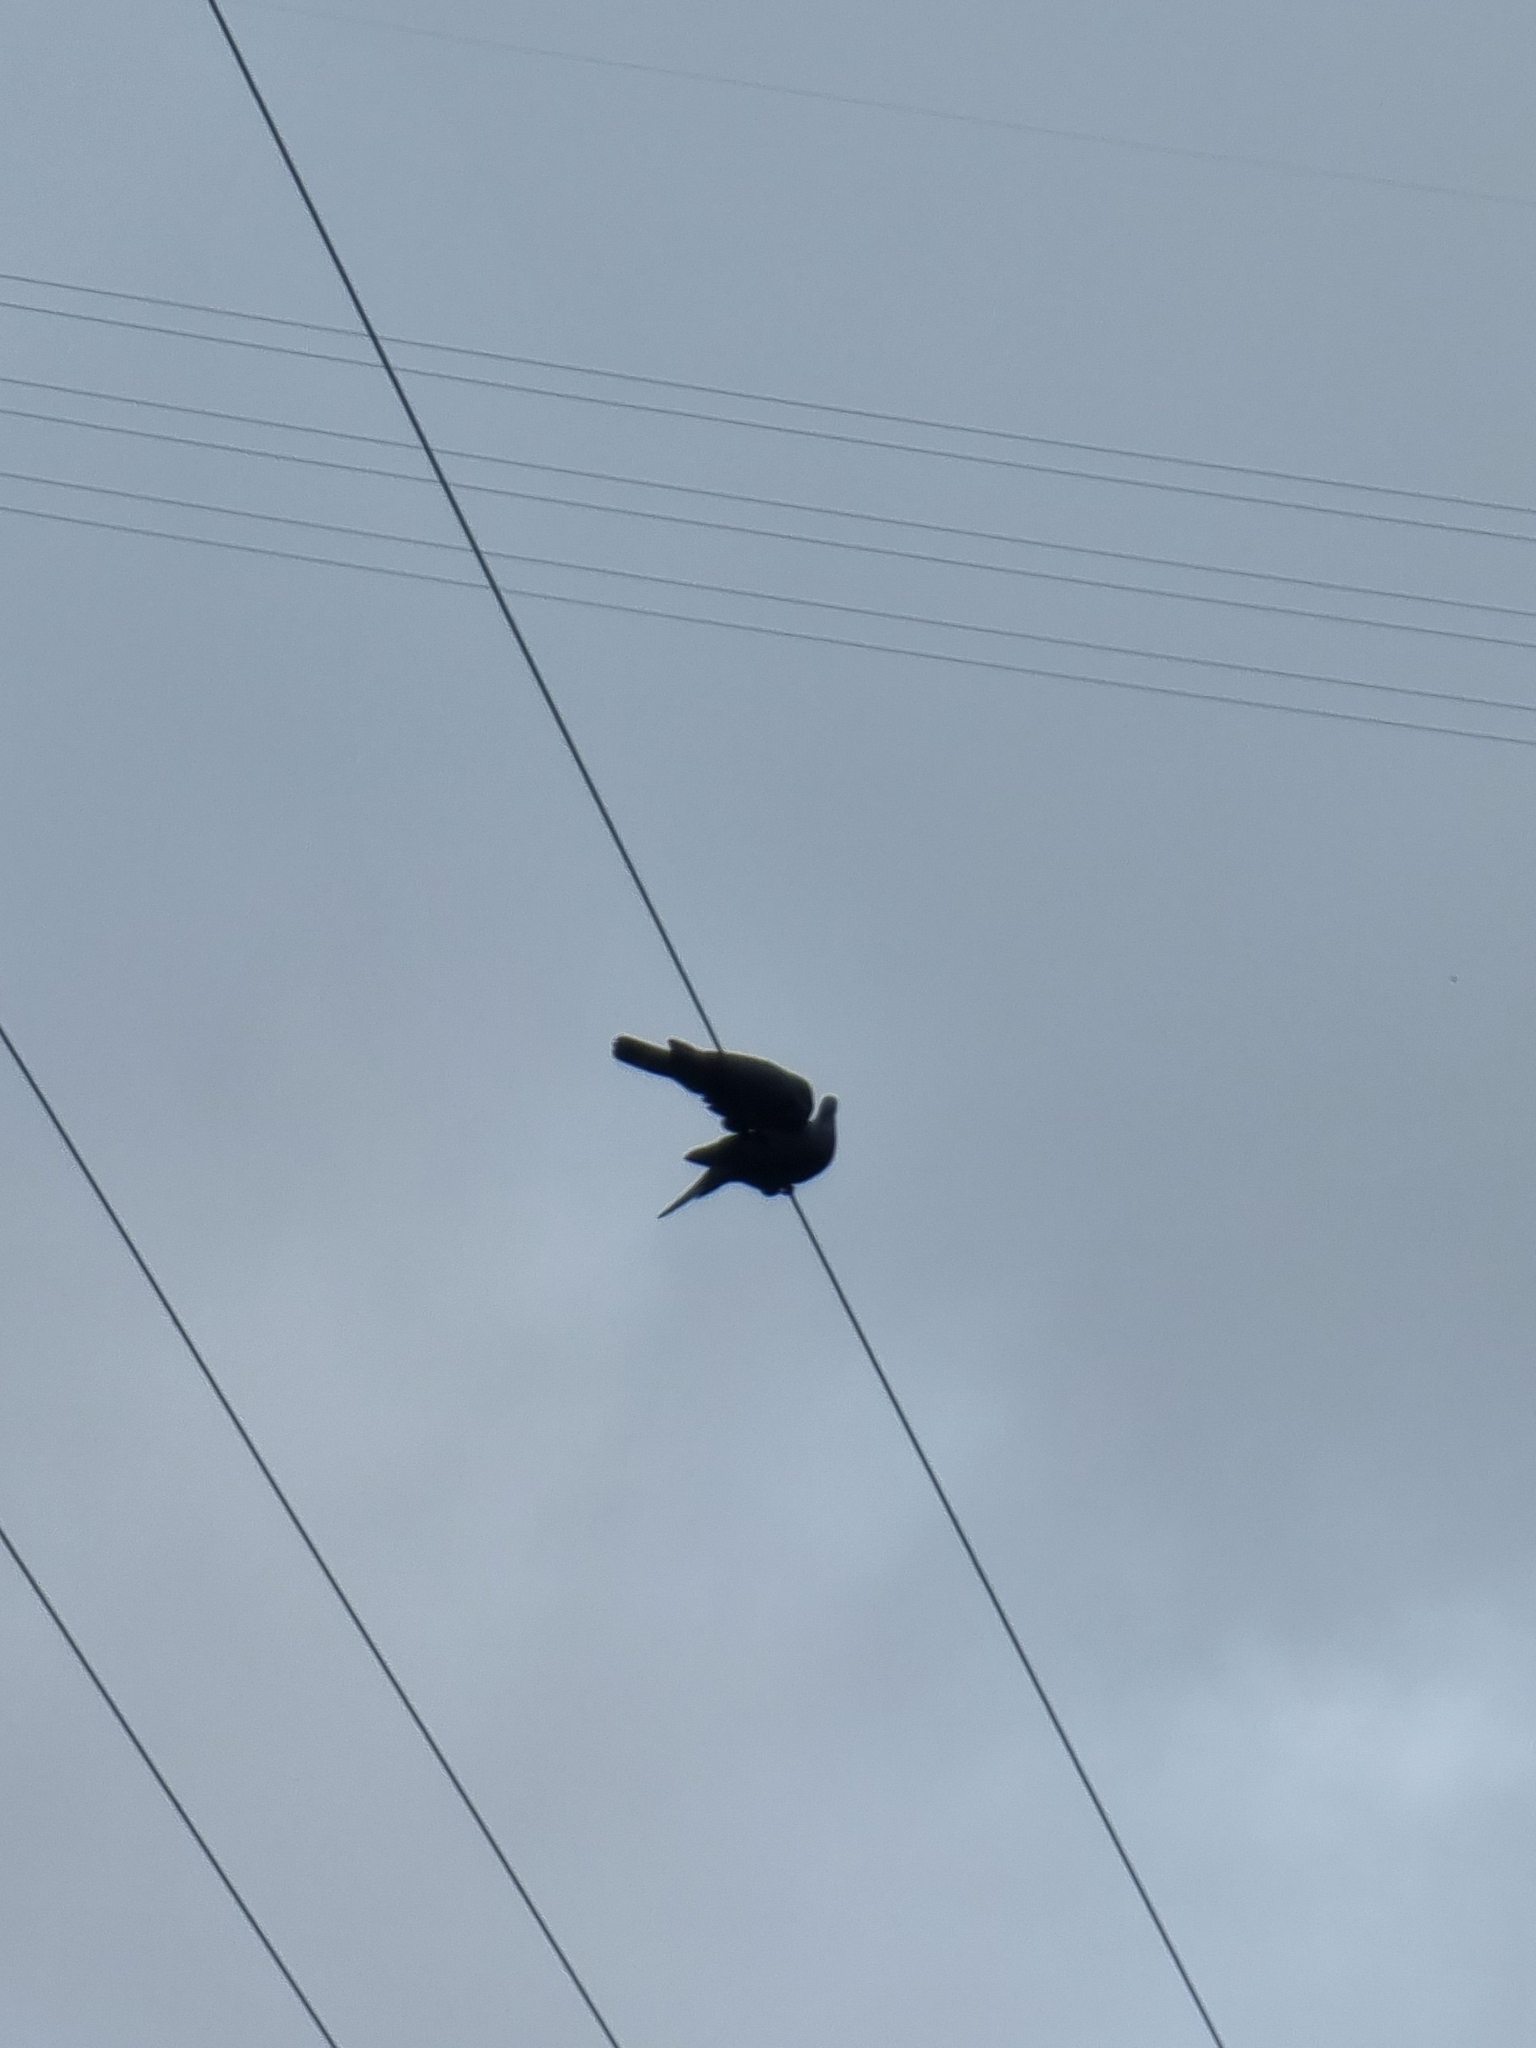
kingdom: Animalia
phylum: Chordata
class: Aves
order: Columbiformes
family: Columbidae
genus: Columba
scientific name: Columba trocaz
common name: Trocaz pigeon
